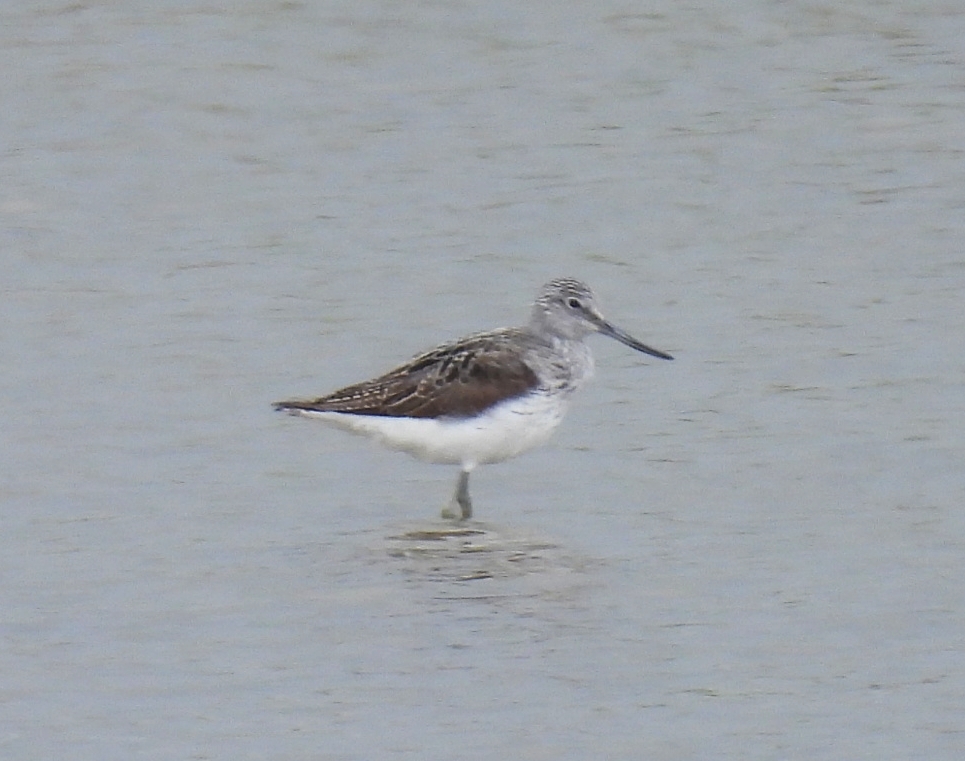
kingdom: Animalia
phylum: Chordata
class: Aves
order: Charadriiformes
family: Scolopacidae
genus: Tringa
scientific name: Tringa nebularia
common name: Common greenshank
